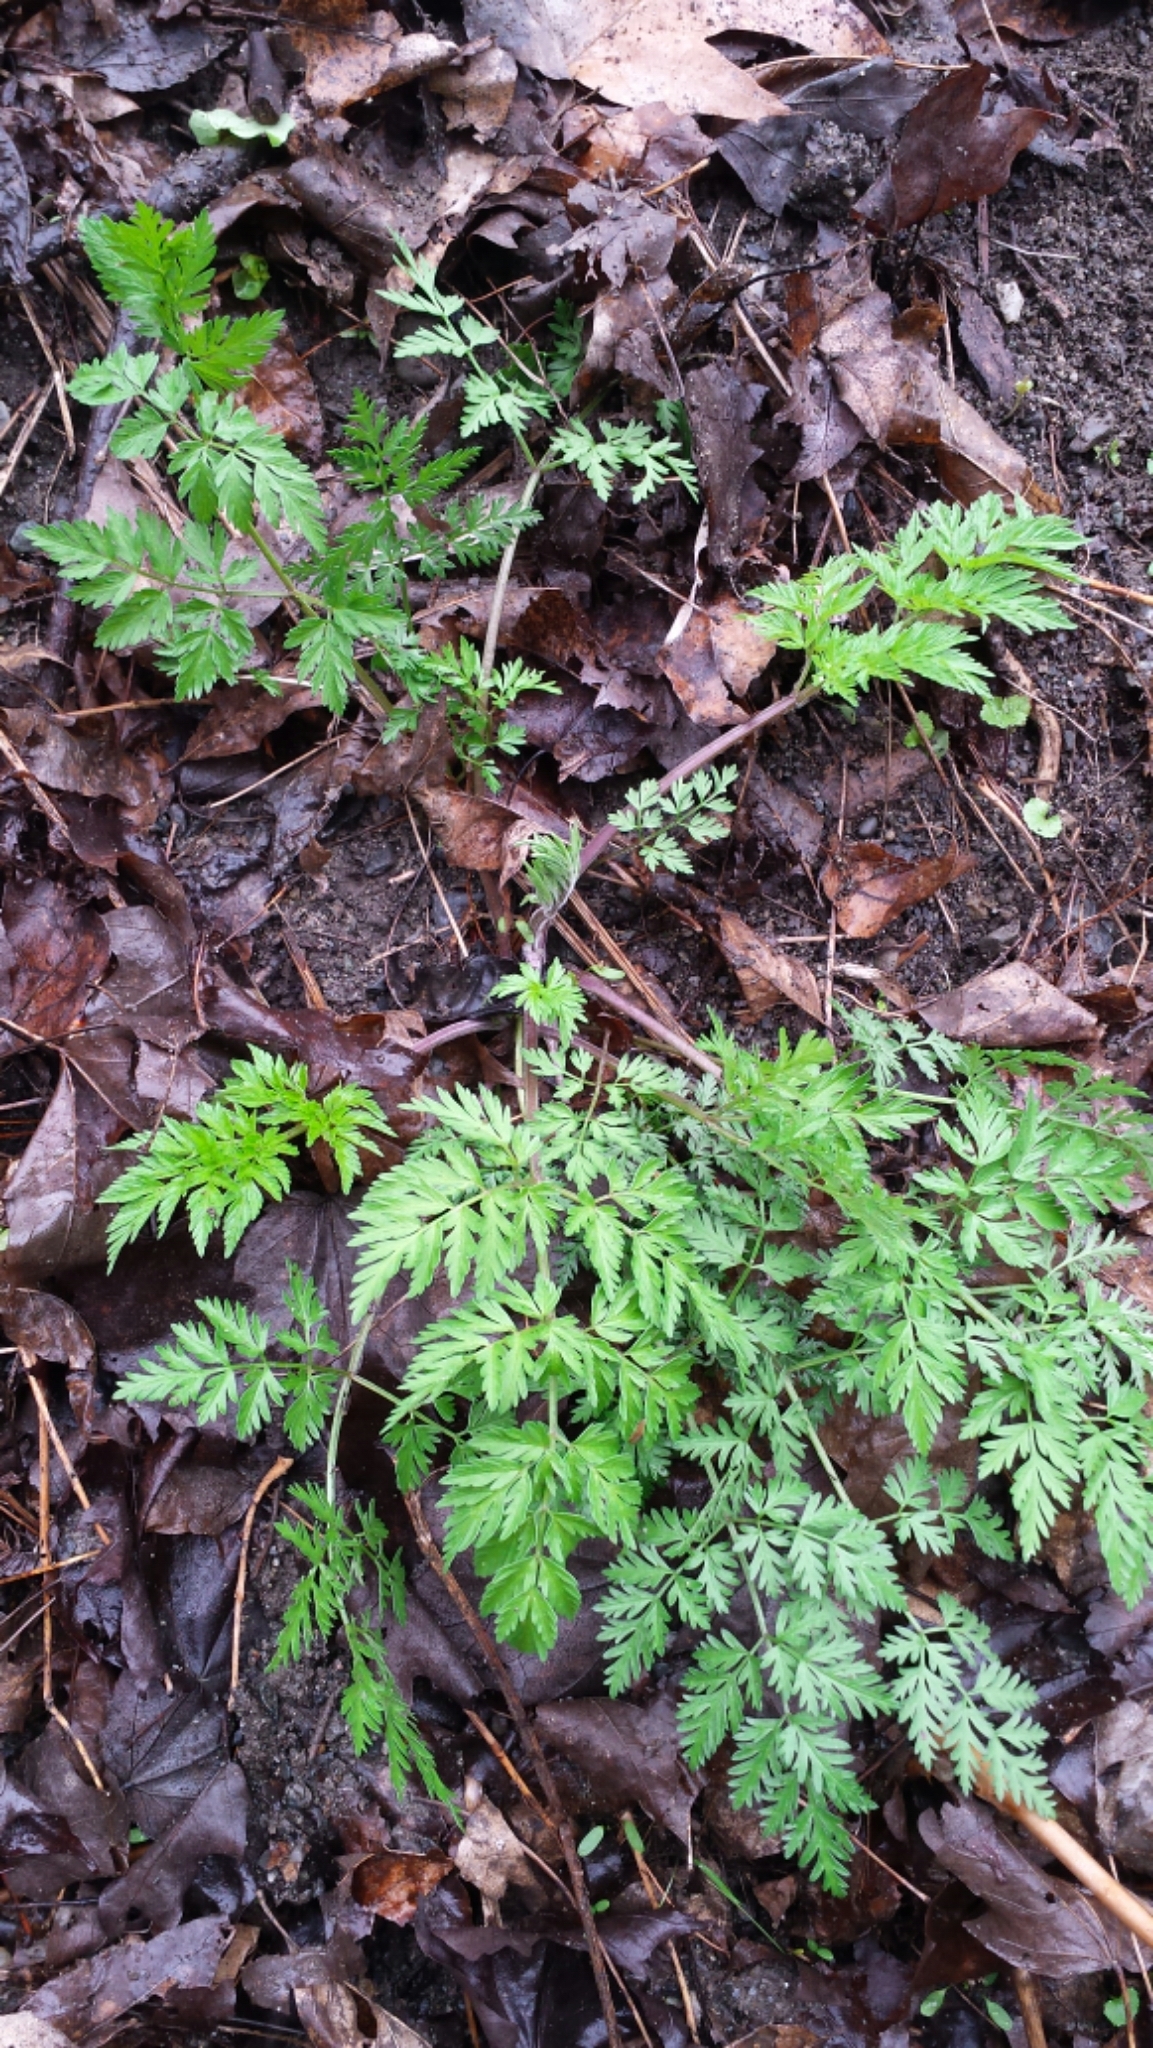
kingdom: Plantae
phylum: Tracheophyta
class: Magnoliopsida
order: Apiales
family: Apiaceae
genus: Anthriscus
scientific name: Anthriscus sylvestris
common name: Cow parsley
